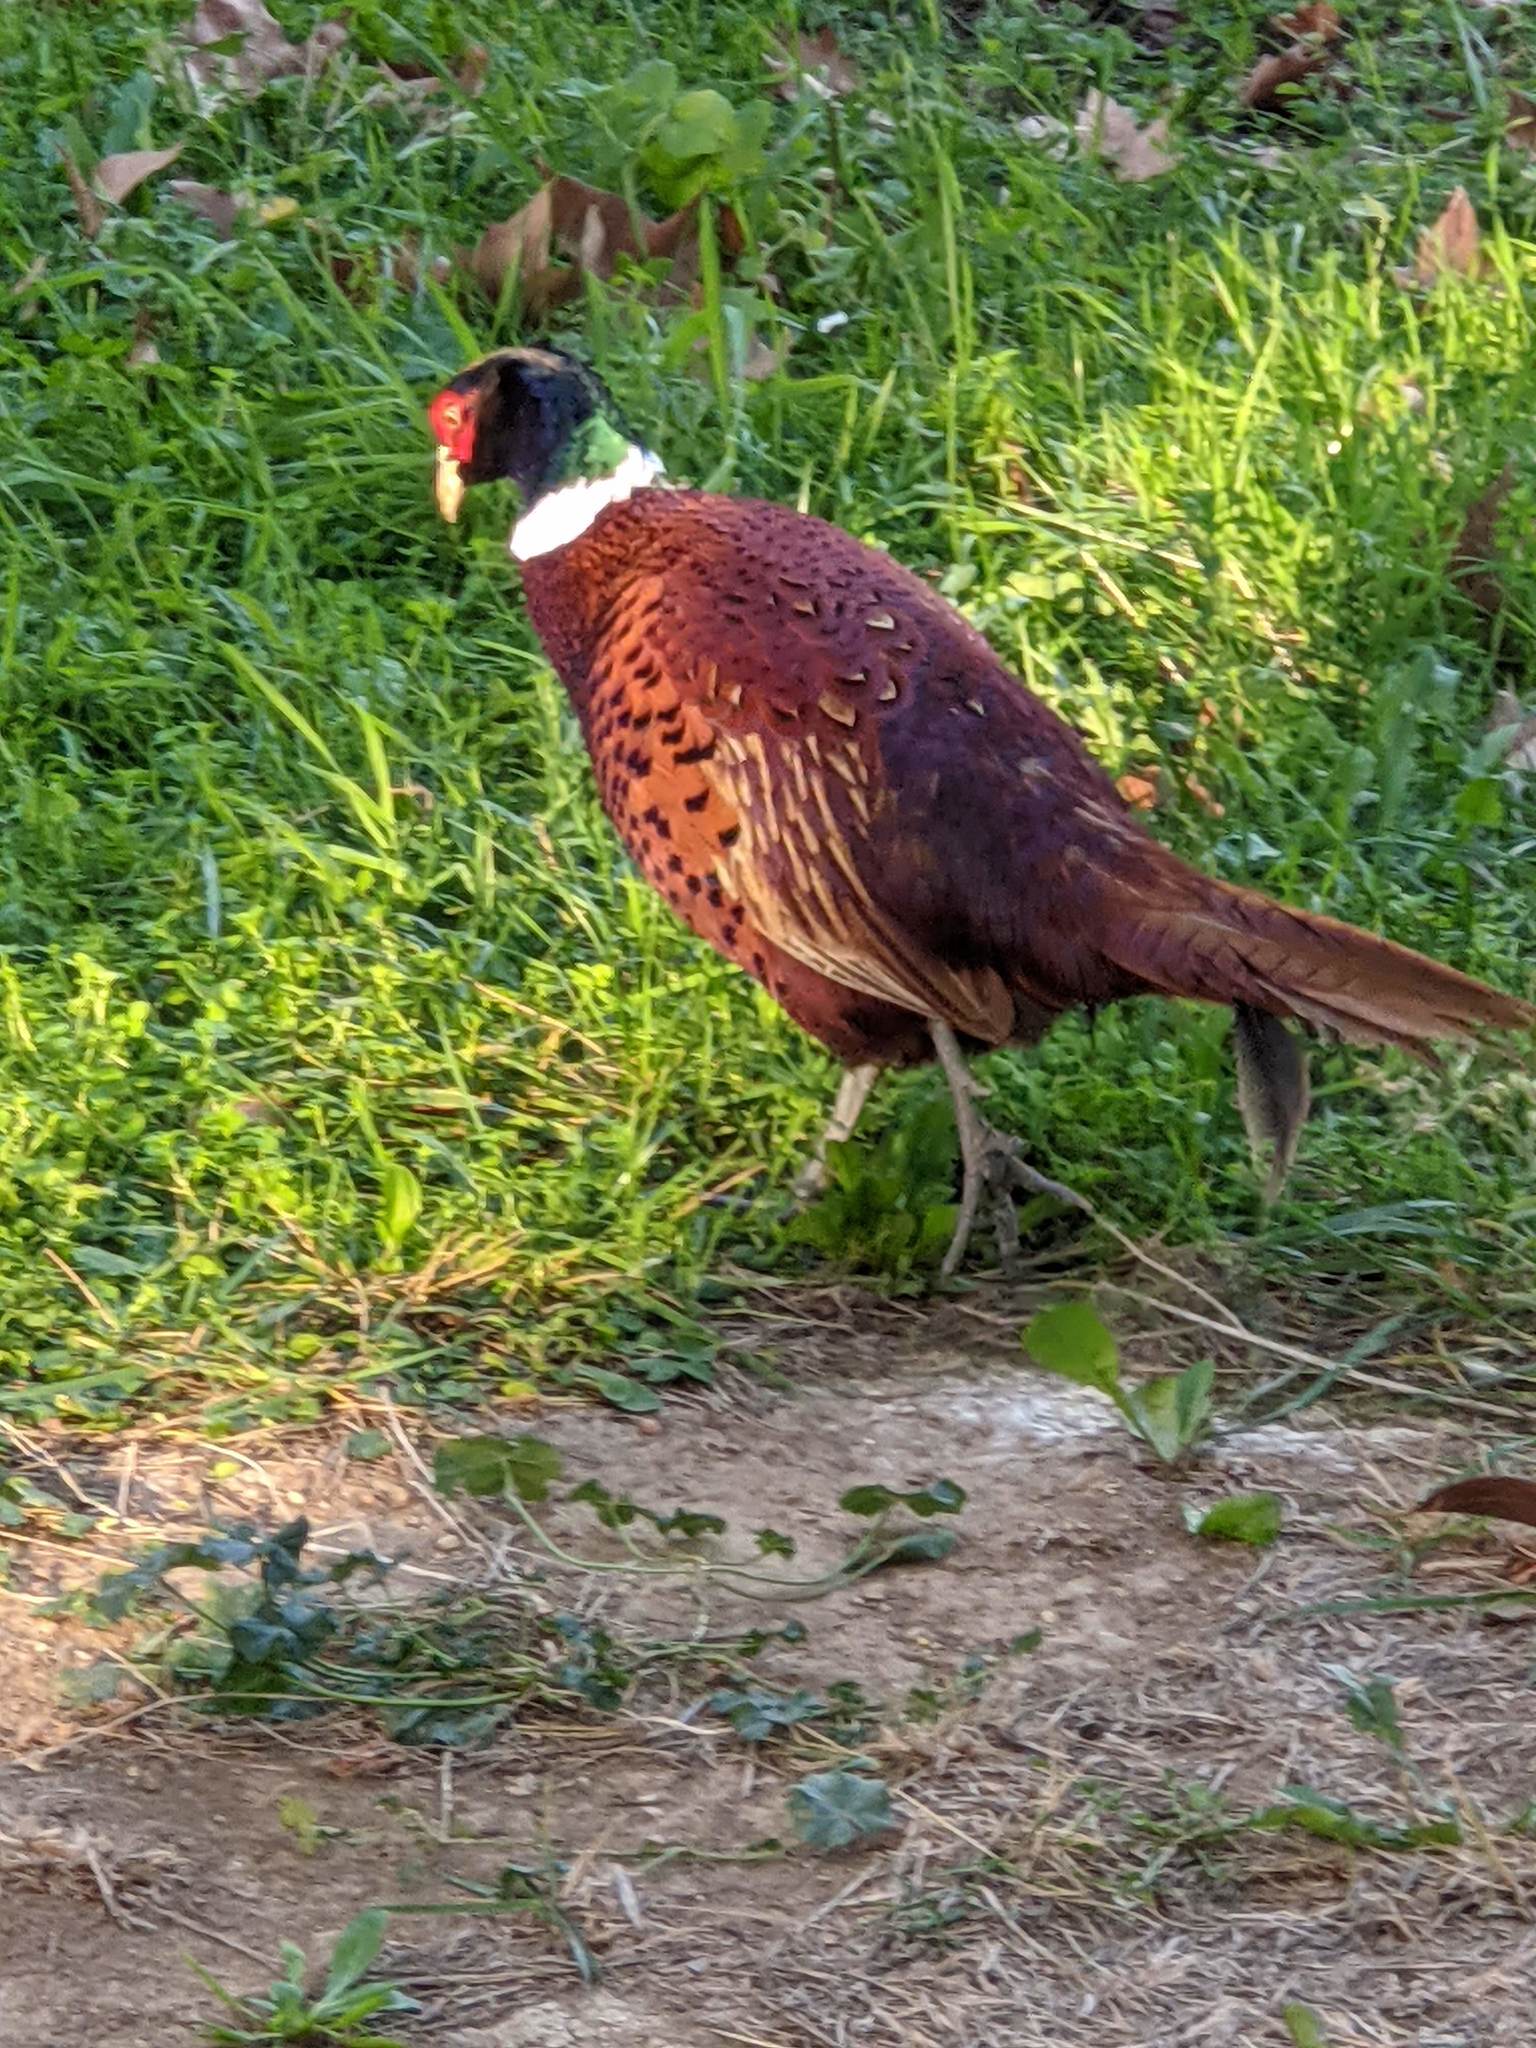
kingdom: Animalia
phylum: Chordata
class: Aves
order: Galliformes
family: Phasianidae
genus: Phasianus
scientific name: Phasianus colchicus
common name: Common pheasant
